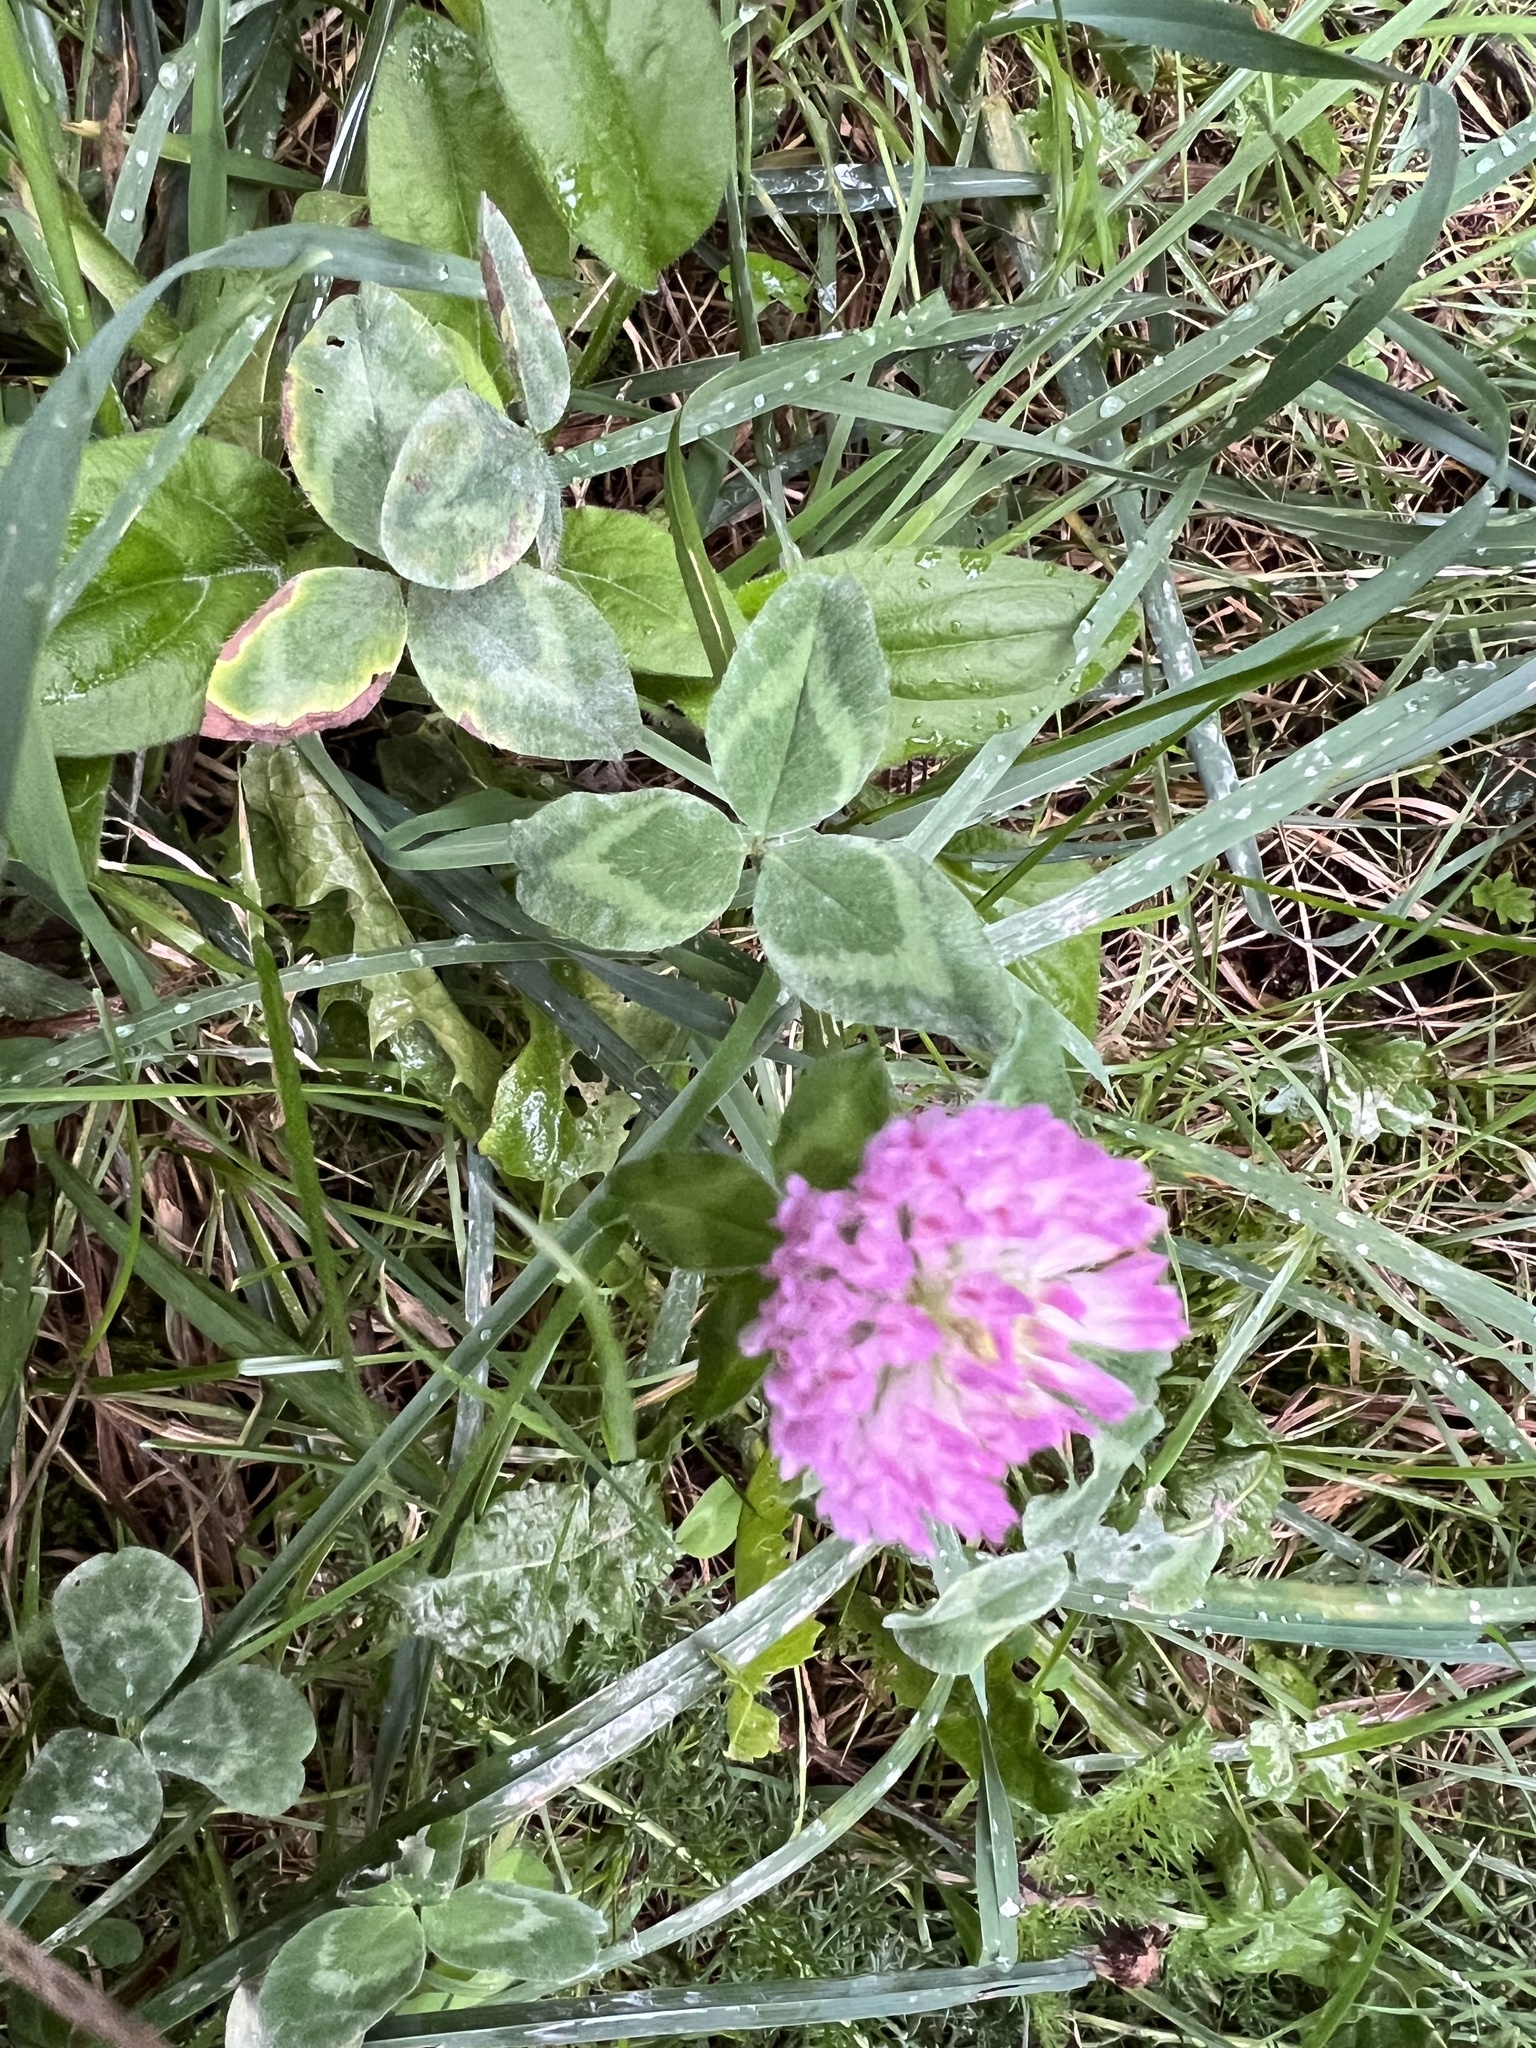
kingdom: Plantae
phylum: Tracheophyta
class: Magnoliopsida
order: Fabales
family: Fabaceae
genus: Trifolium
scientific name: Trifolium pratense
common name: Red clover
